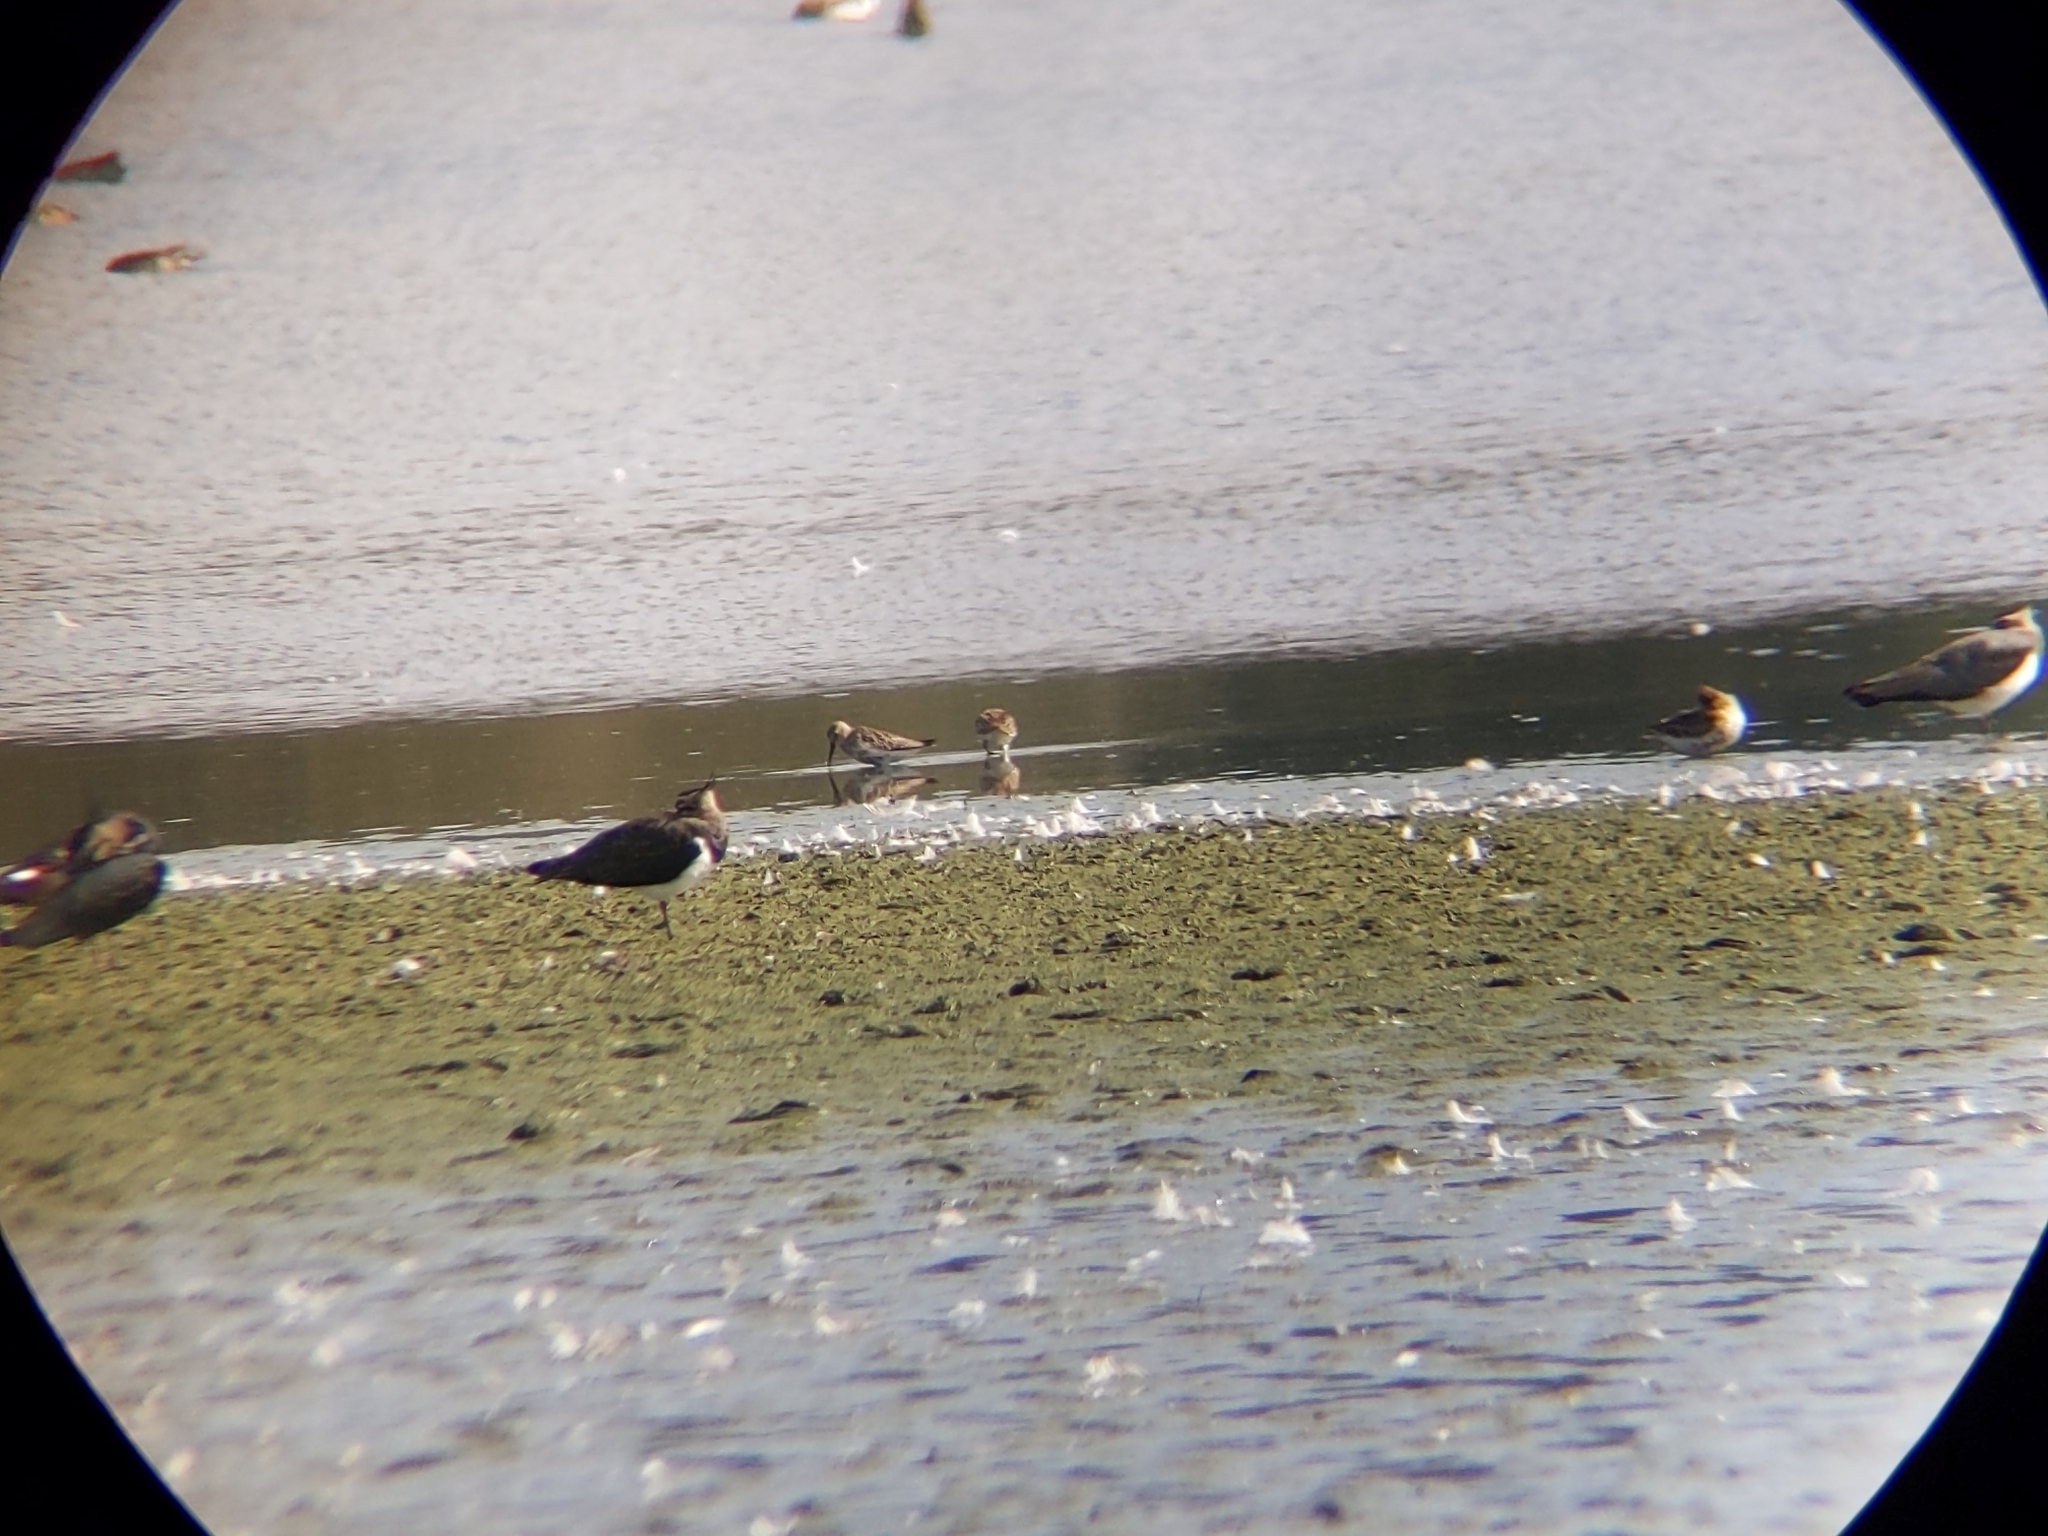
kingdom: Animalia
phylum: Chordata
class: Aves
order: Charadriiformes
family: Scolopacidae
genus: Calidris
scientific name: Calidris alpina
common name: Dunlin
